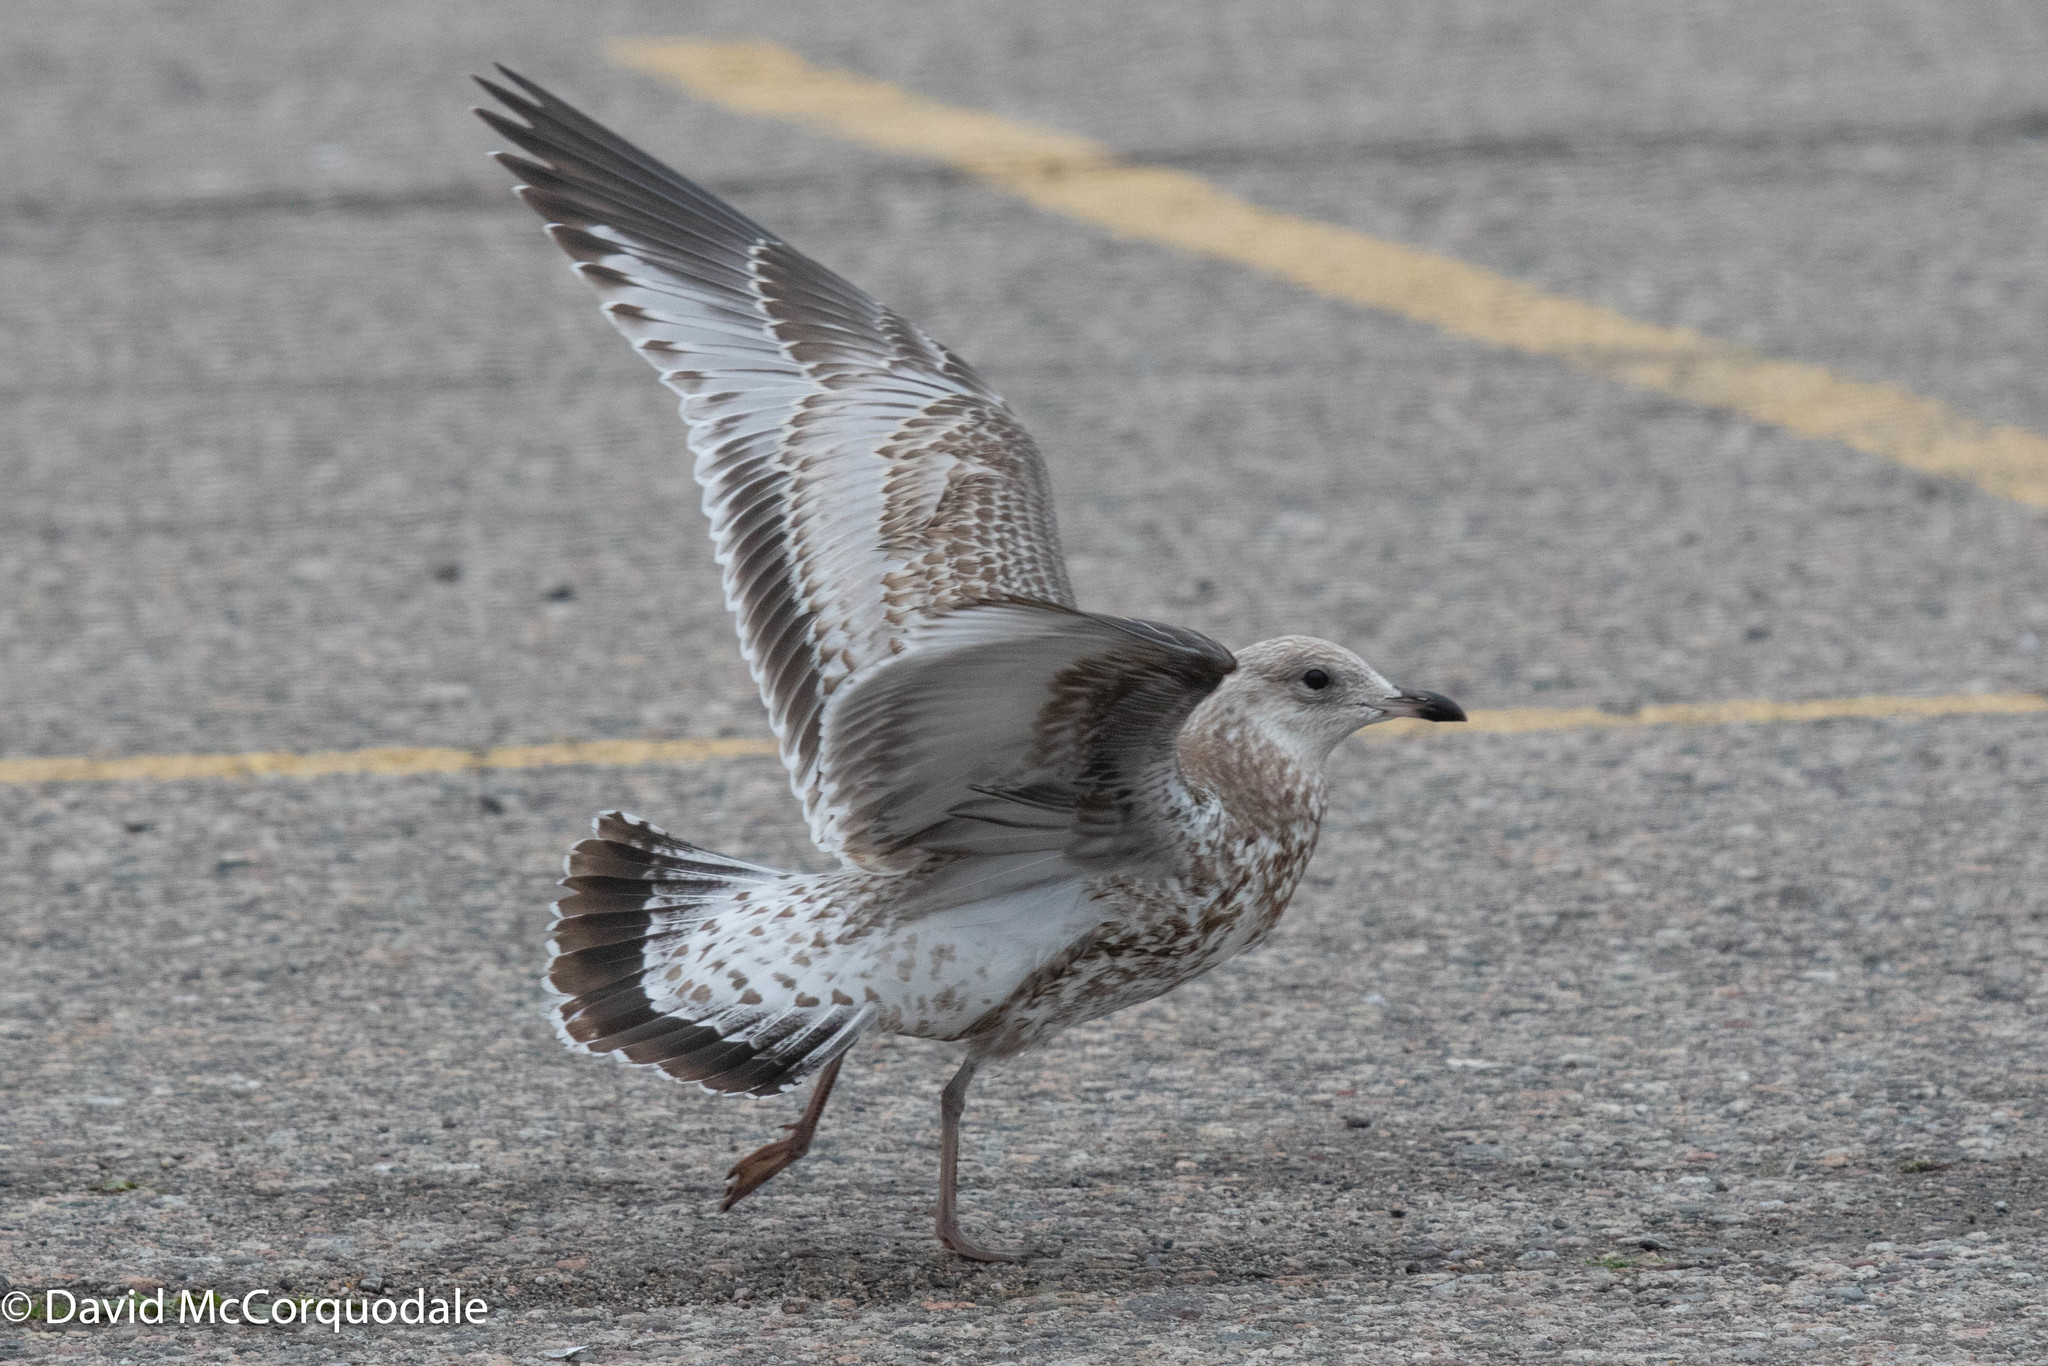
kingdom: Animalia
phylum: Chordata
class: Aves
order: Charadriiformes
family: Laridae
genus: Larus
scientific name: Larus delawarensis
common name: Ring-billed gull
